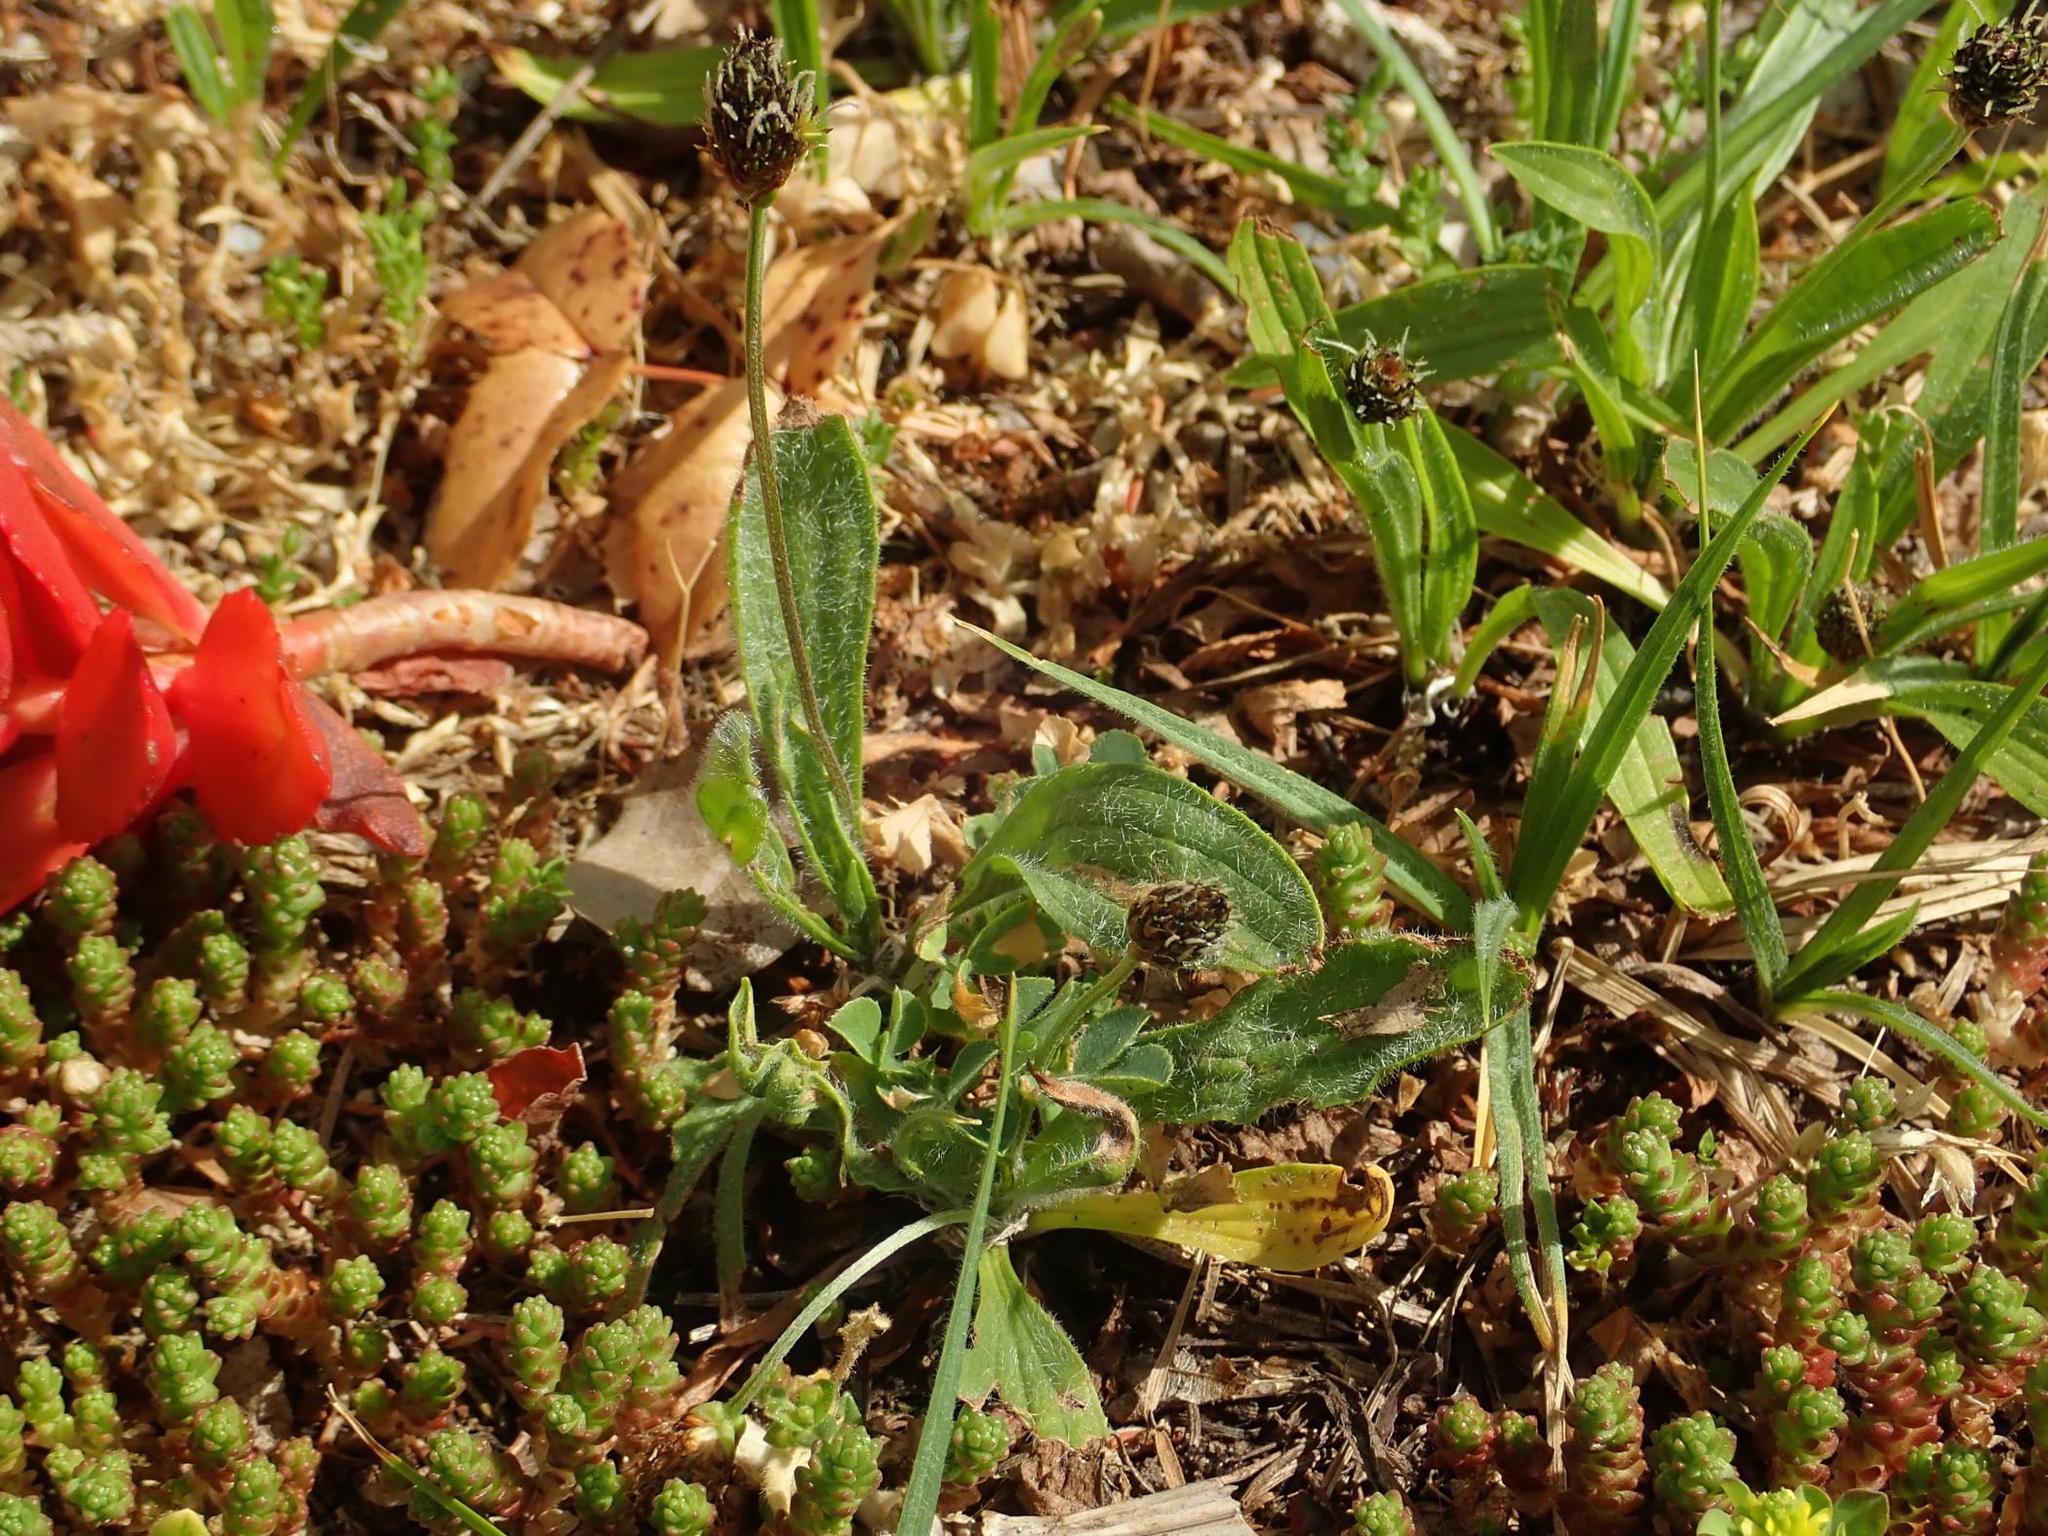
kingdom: Plantae
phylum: Tracheophyta
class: Magnoliopsida
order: Lamiales
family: Plantaginaceae
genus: Plantago
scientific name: Plantago lanceolata
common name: Ribwort plantain
